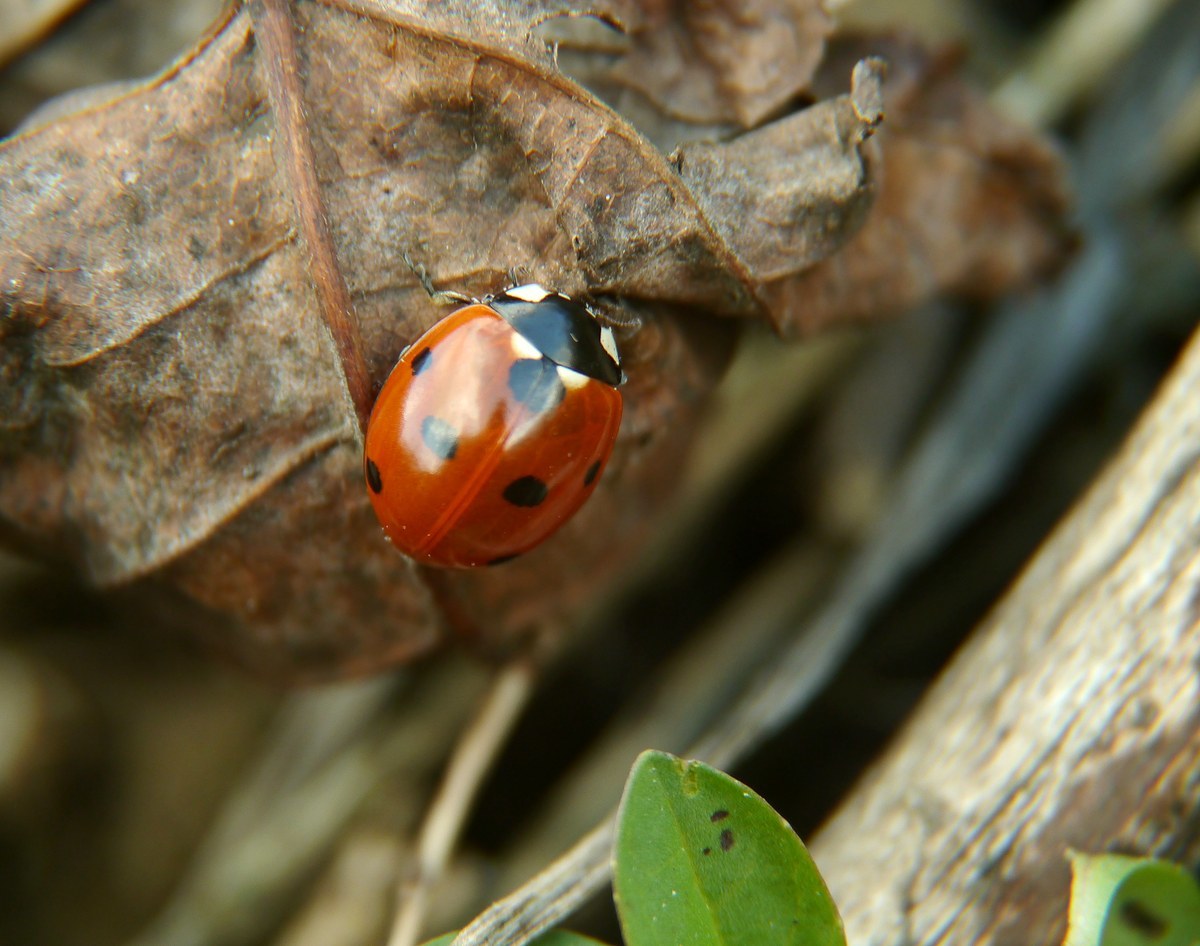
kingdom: Animalia
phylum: Arthropoda
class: Insecta
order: Coleoptera
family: Coccinellidae
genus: Coccinella
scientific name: Coccinella septempunctata
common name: Sevenspotted lady beetle
